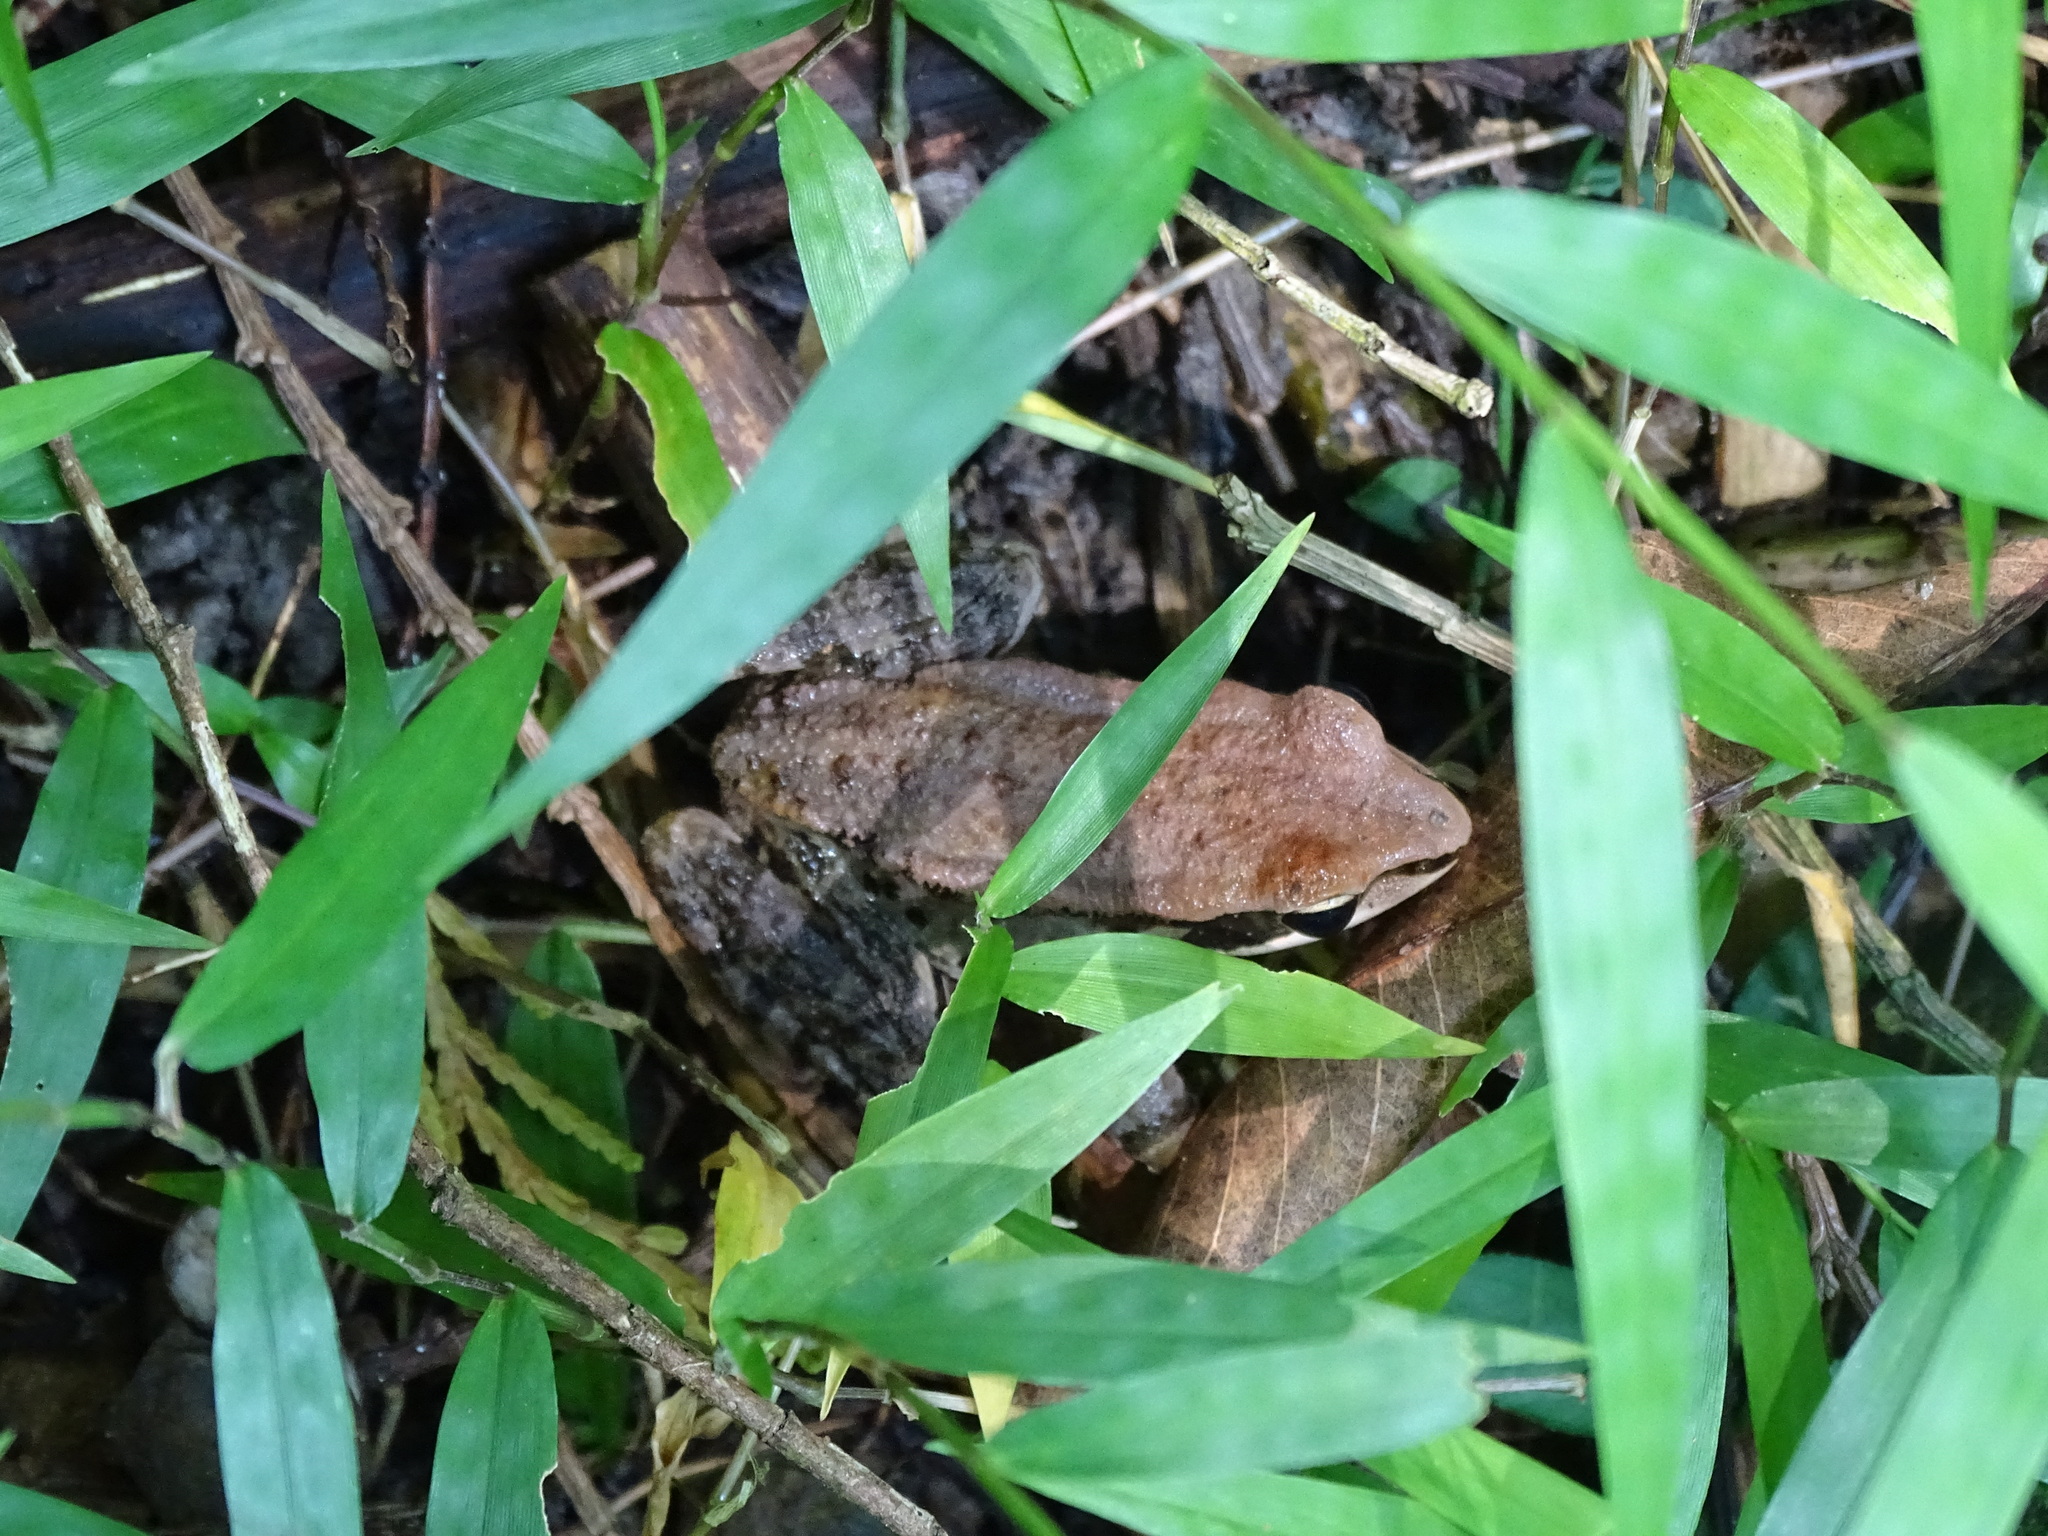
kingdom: Animalia
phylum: Chordata
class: Amphibia
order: Anura
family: Ranidae
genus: Hylarana
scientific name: Hylarana latouchii
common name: Broad-folded frog
